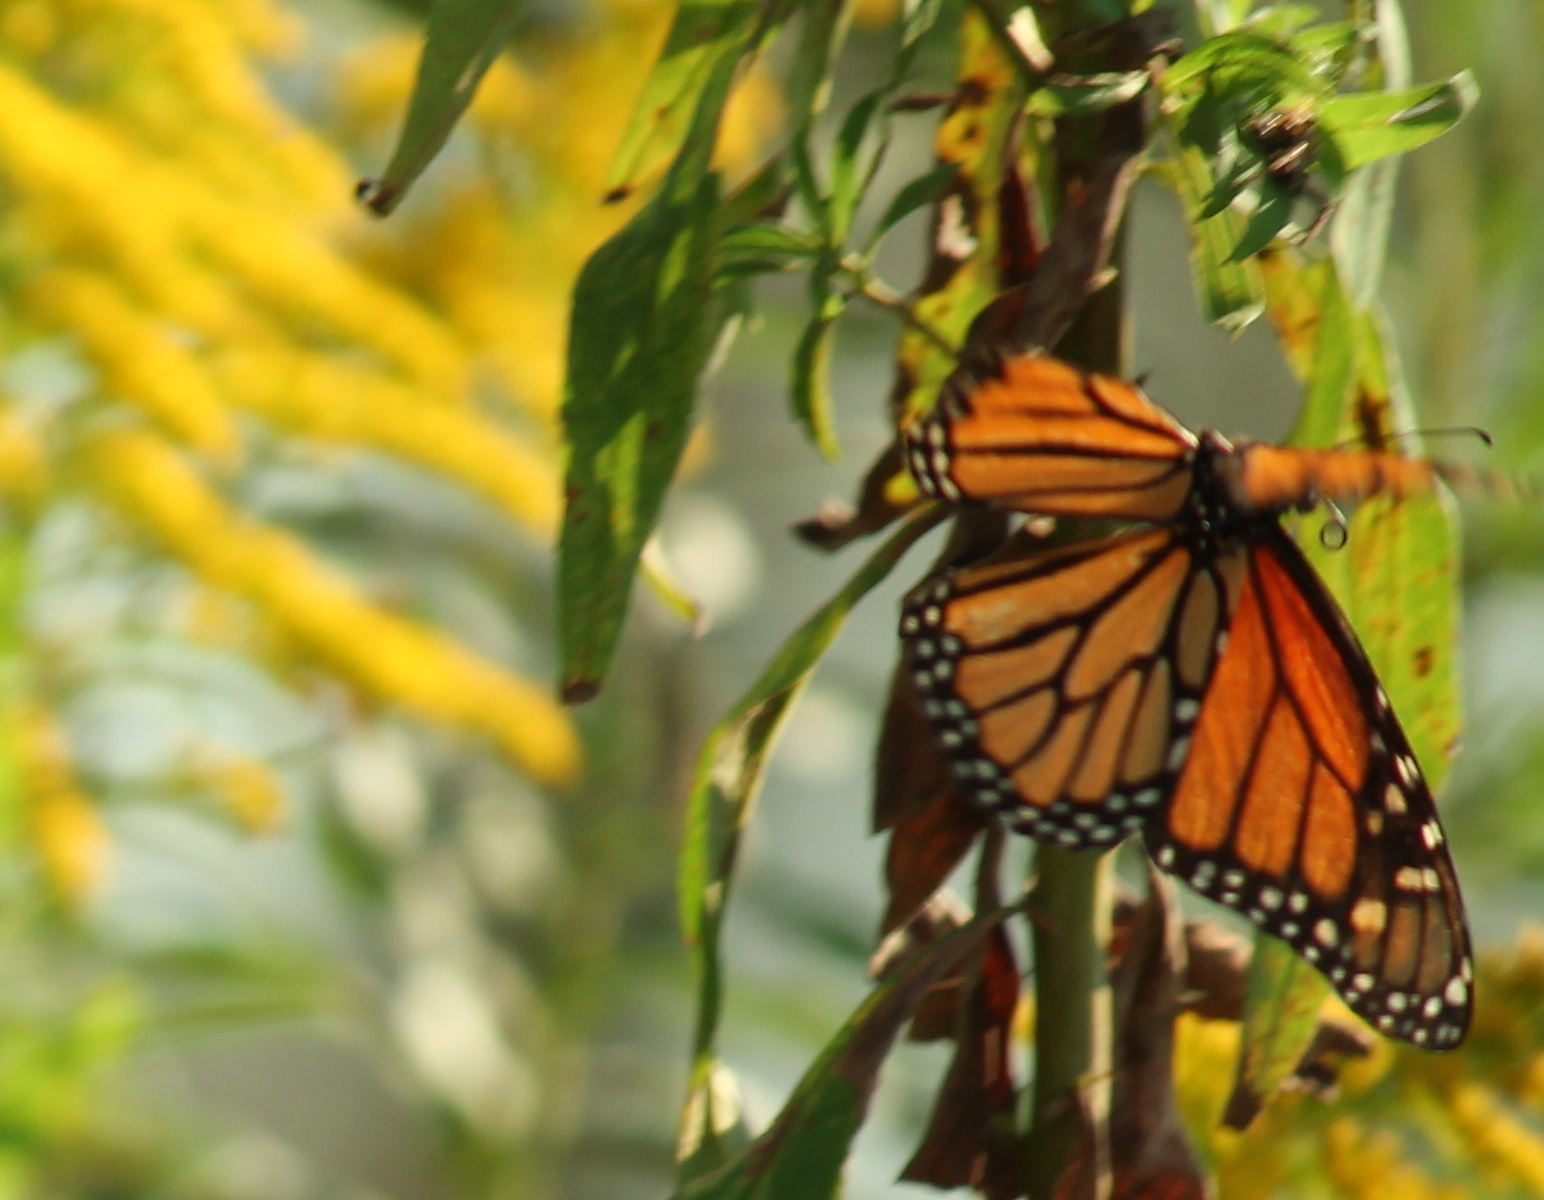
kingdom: Animalia
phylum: Arthropoda
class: Insecta
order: Lepidoptera
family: Nymphalidae
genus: Danaus
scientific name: Danaus plexippus
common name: Monarch
